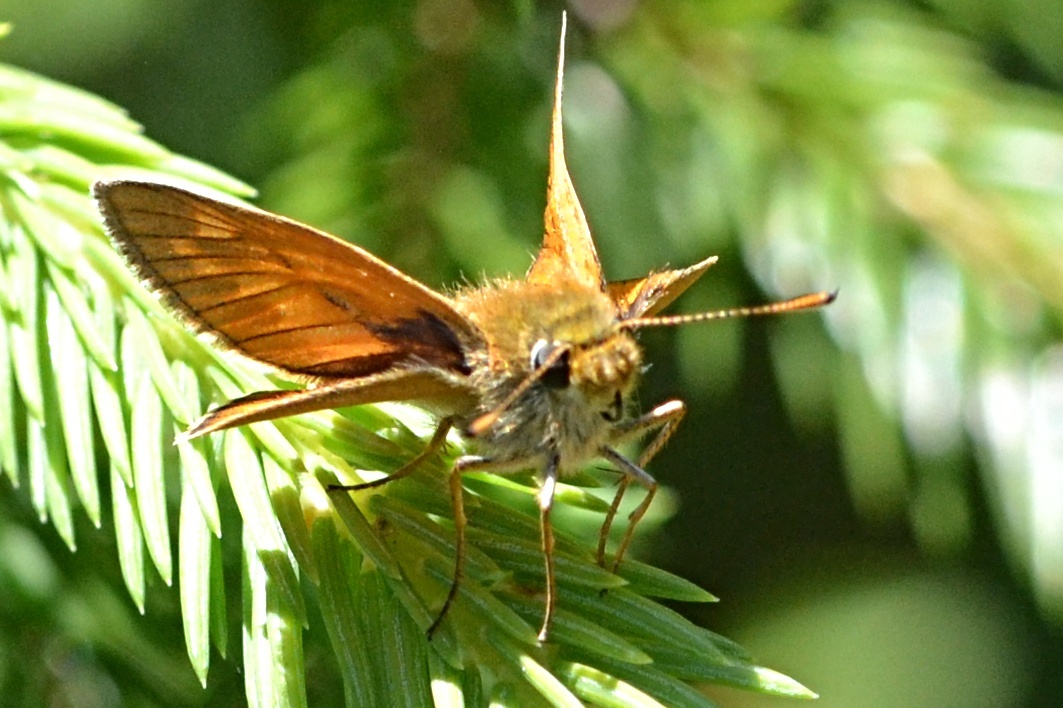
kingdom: Animalia
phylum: Arthropoda
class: Insecta
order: Lepidoptera
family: Hesperiidae
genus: Ochlodes
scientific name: Ochlodes venata
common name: Large skipper
